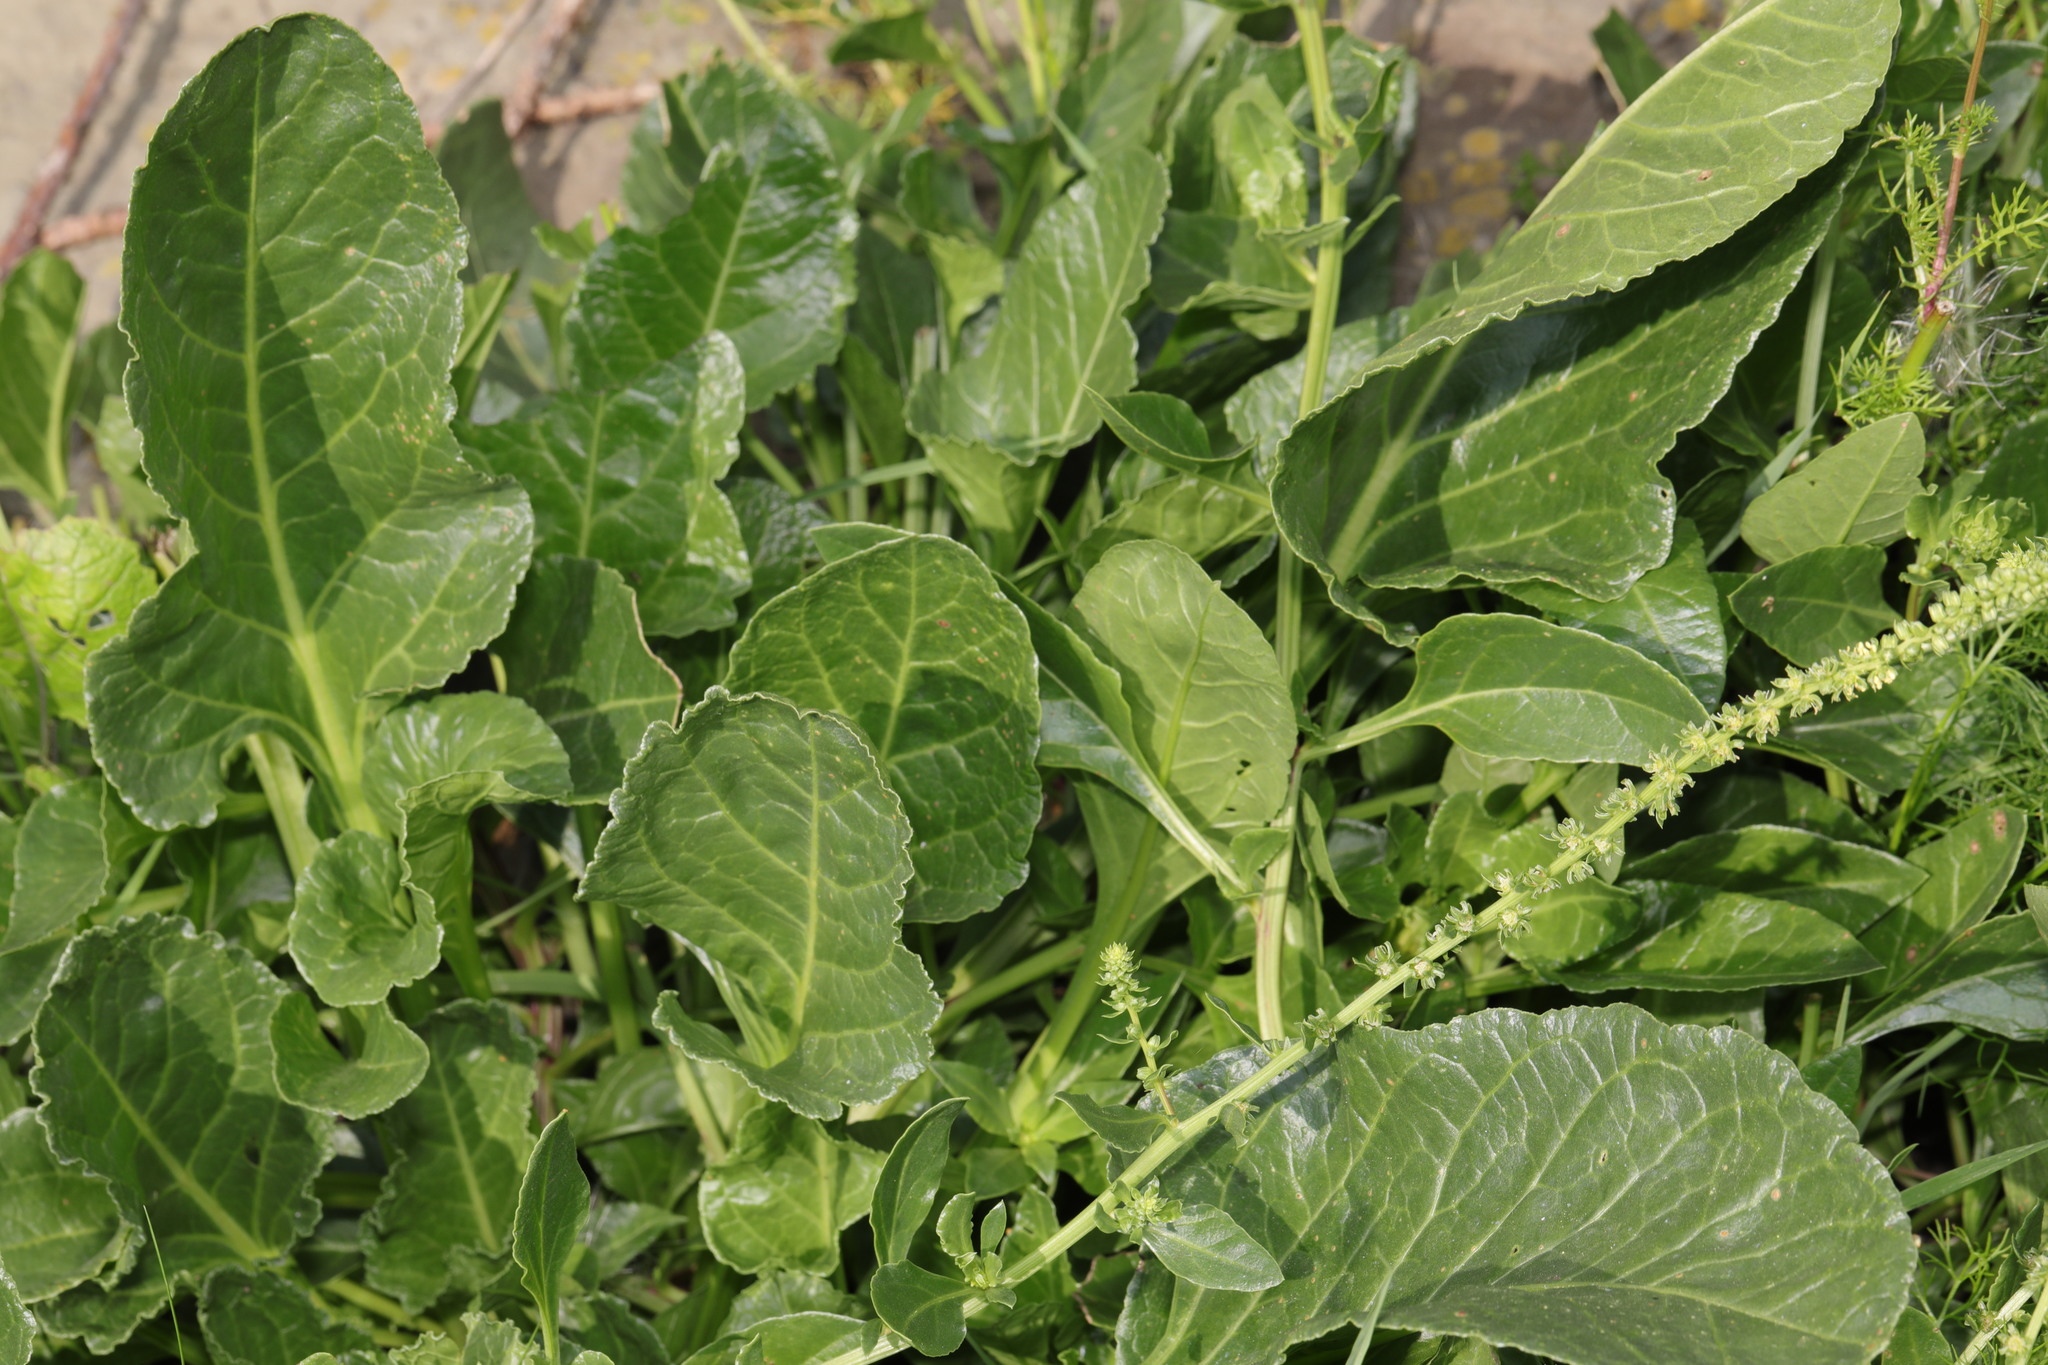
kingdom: Plantae
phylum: Tracheophyta
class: Magnoliopsida
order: Caryophyllales
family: Amaranthaceae
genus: Beta
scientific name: Beta vulgaris
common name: Beet
